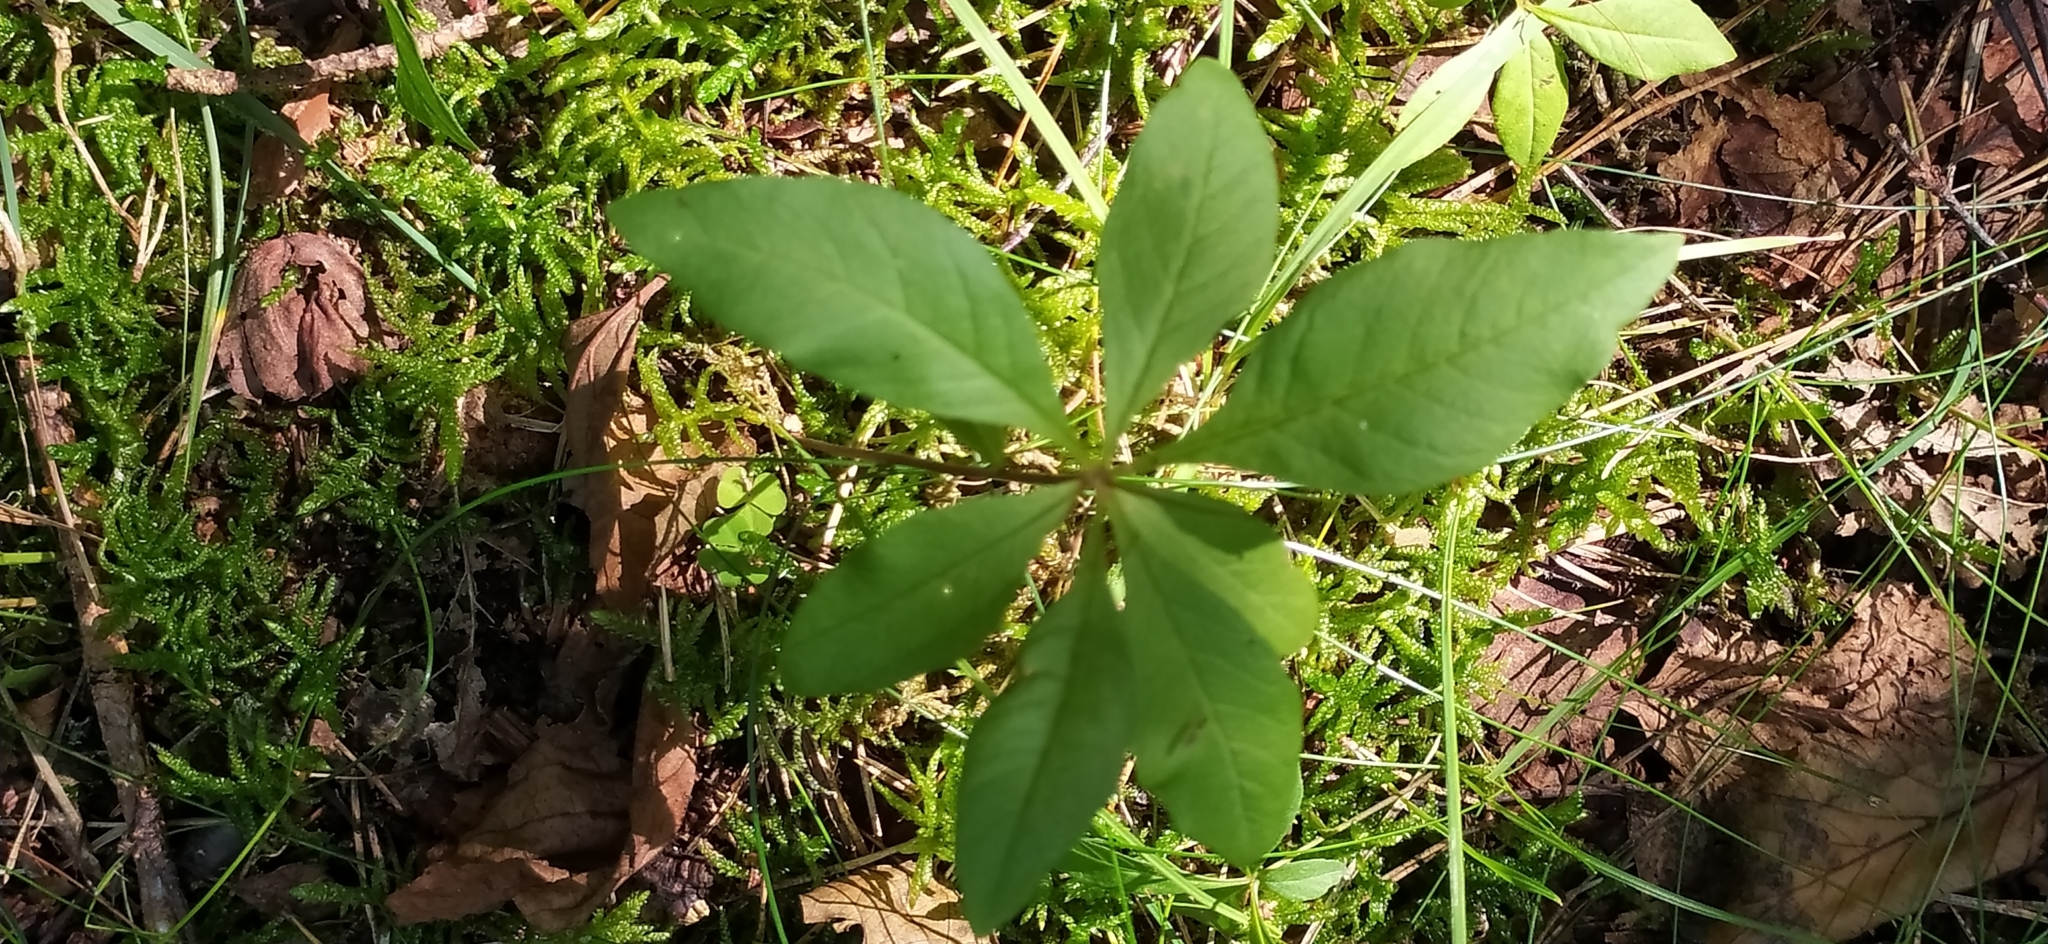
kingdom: Plantae
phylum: Tracheophyta
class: Magnoliopsida
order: Ericales
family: Primulaceae
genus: Lysimachia
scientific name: Lysimachia europaea
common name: Arctic starflower
